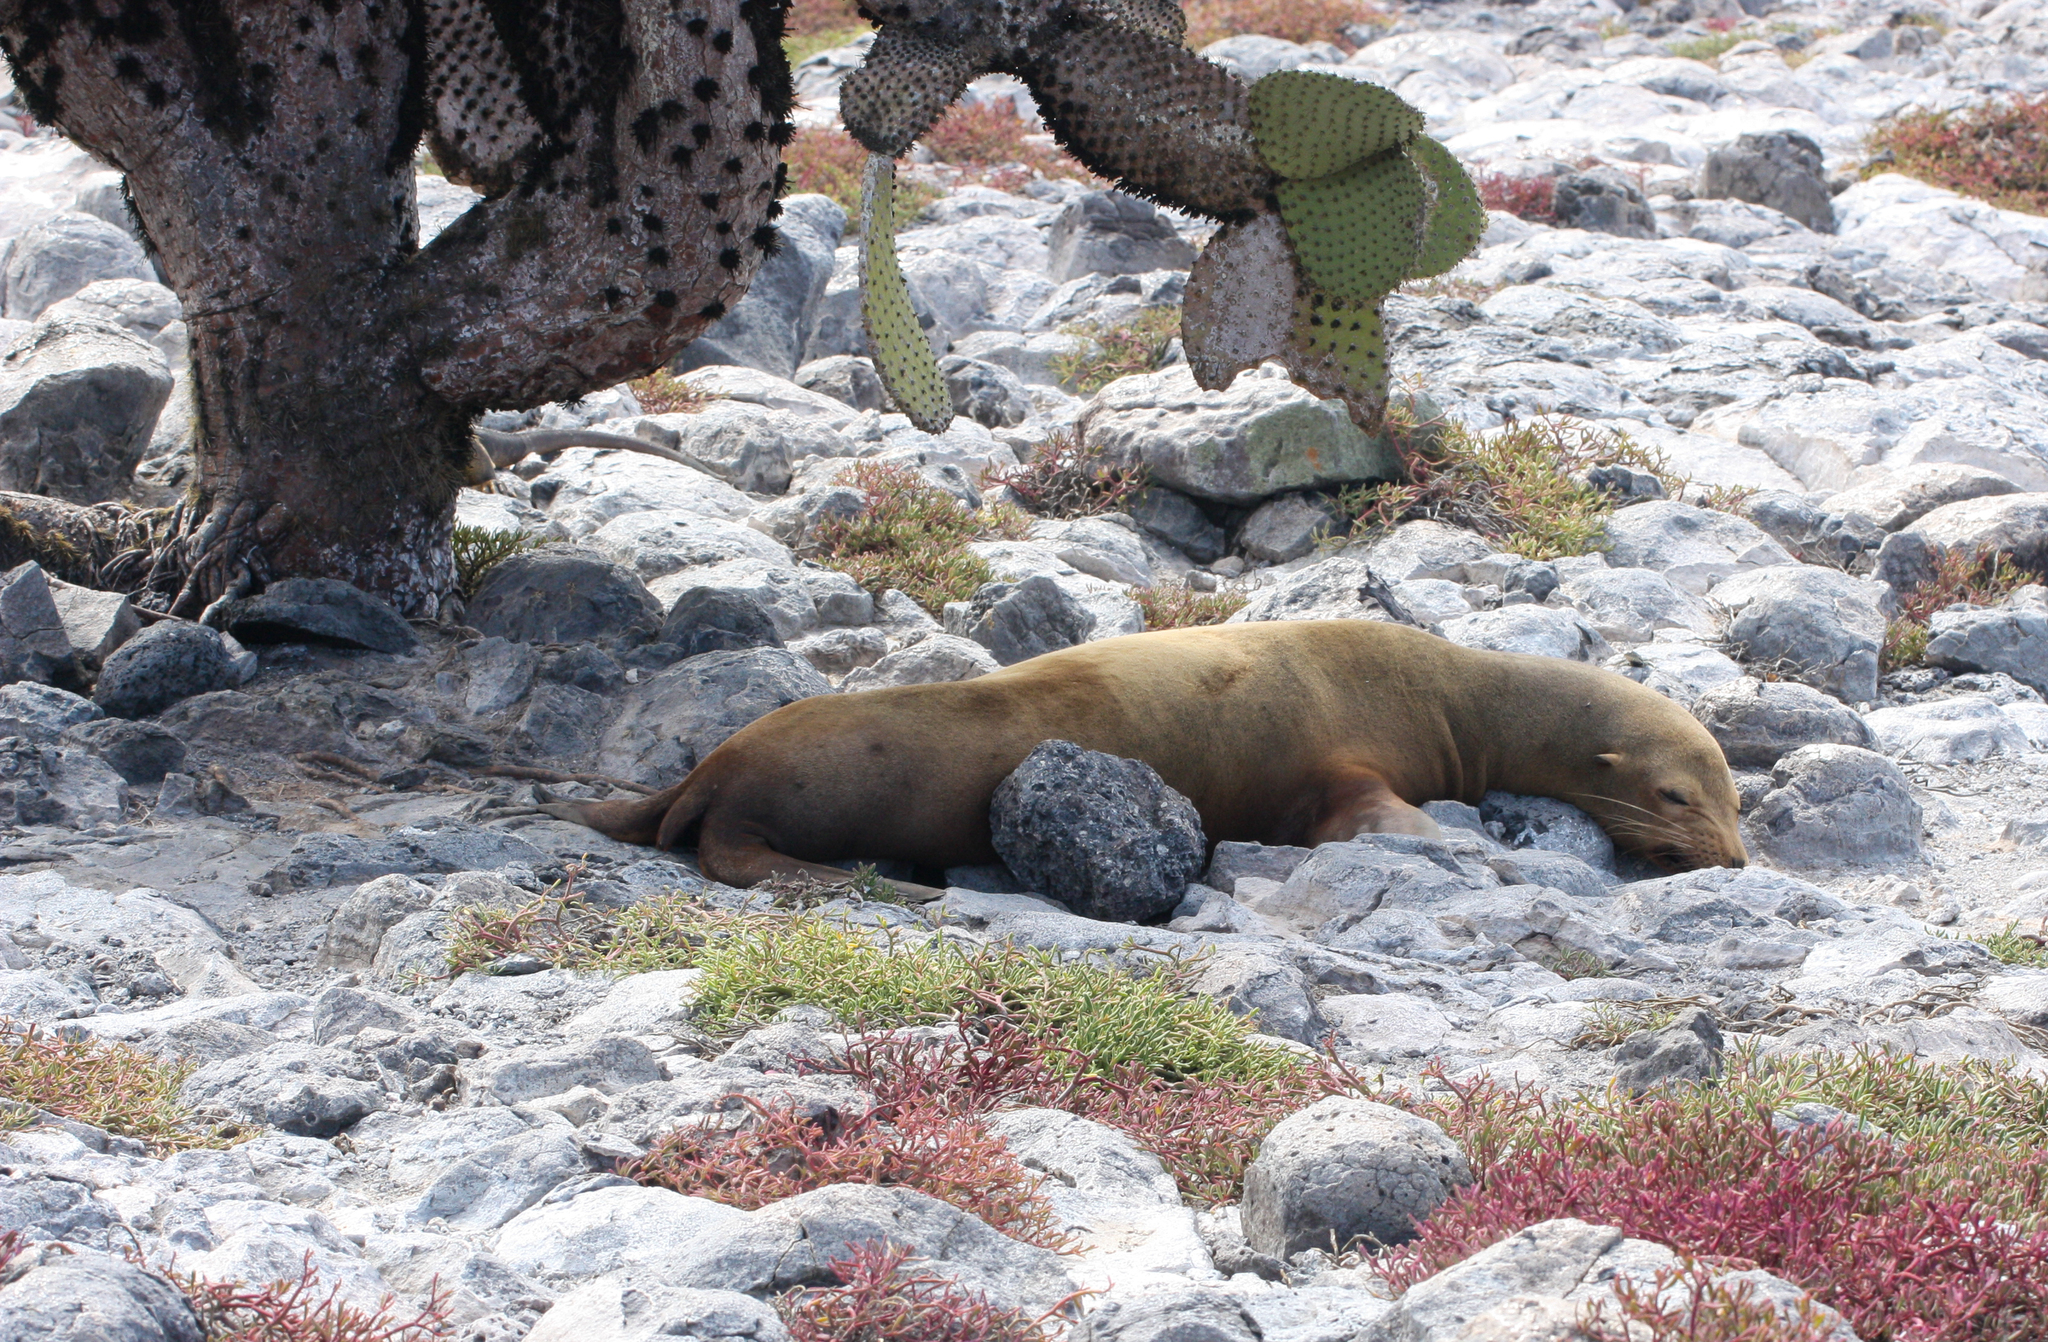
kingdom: Animalia
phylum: Chordata
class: Mammalia
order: Carnivora
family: Otariidae
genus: Zalophus
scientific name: Zalophus wollebaeki
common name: Galapagos sea lion
